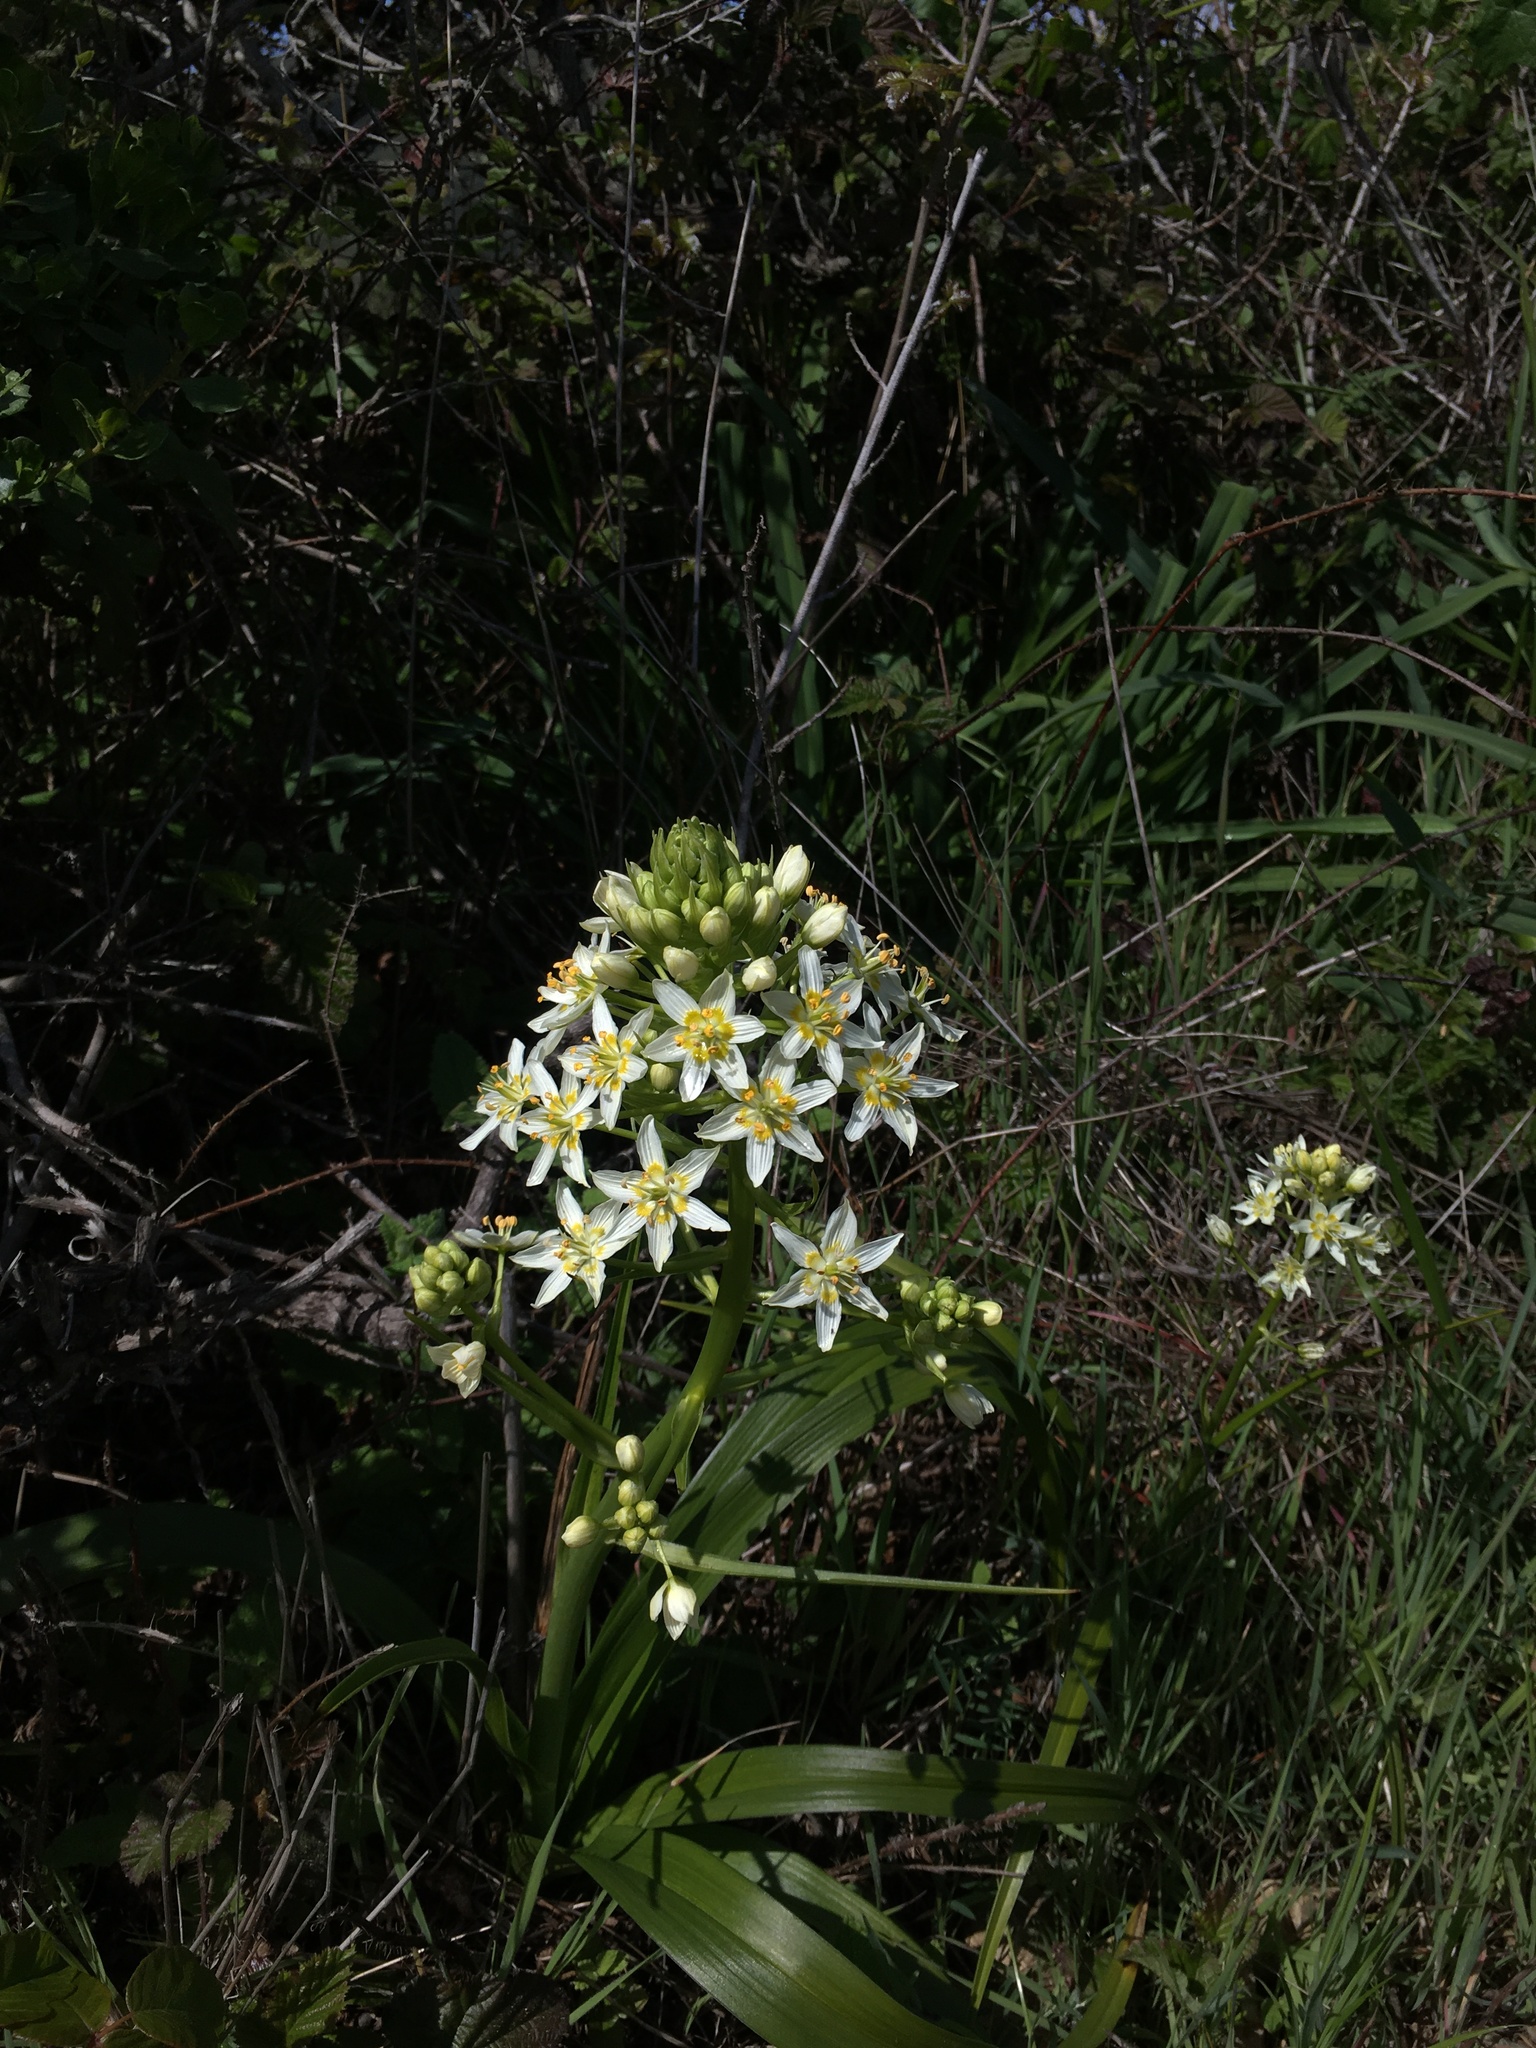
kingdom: Plantae
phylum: Tracheophyta
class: Liliopsida
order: Liliales
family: Melanthiaceae
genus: Toxicoscordion
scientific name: Toxicoscordion fremontii
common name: Fremont's death camas
